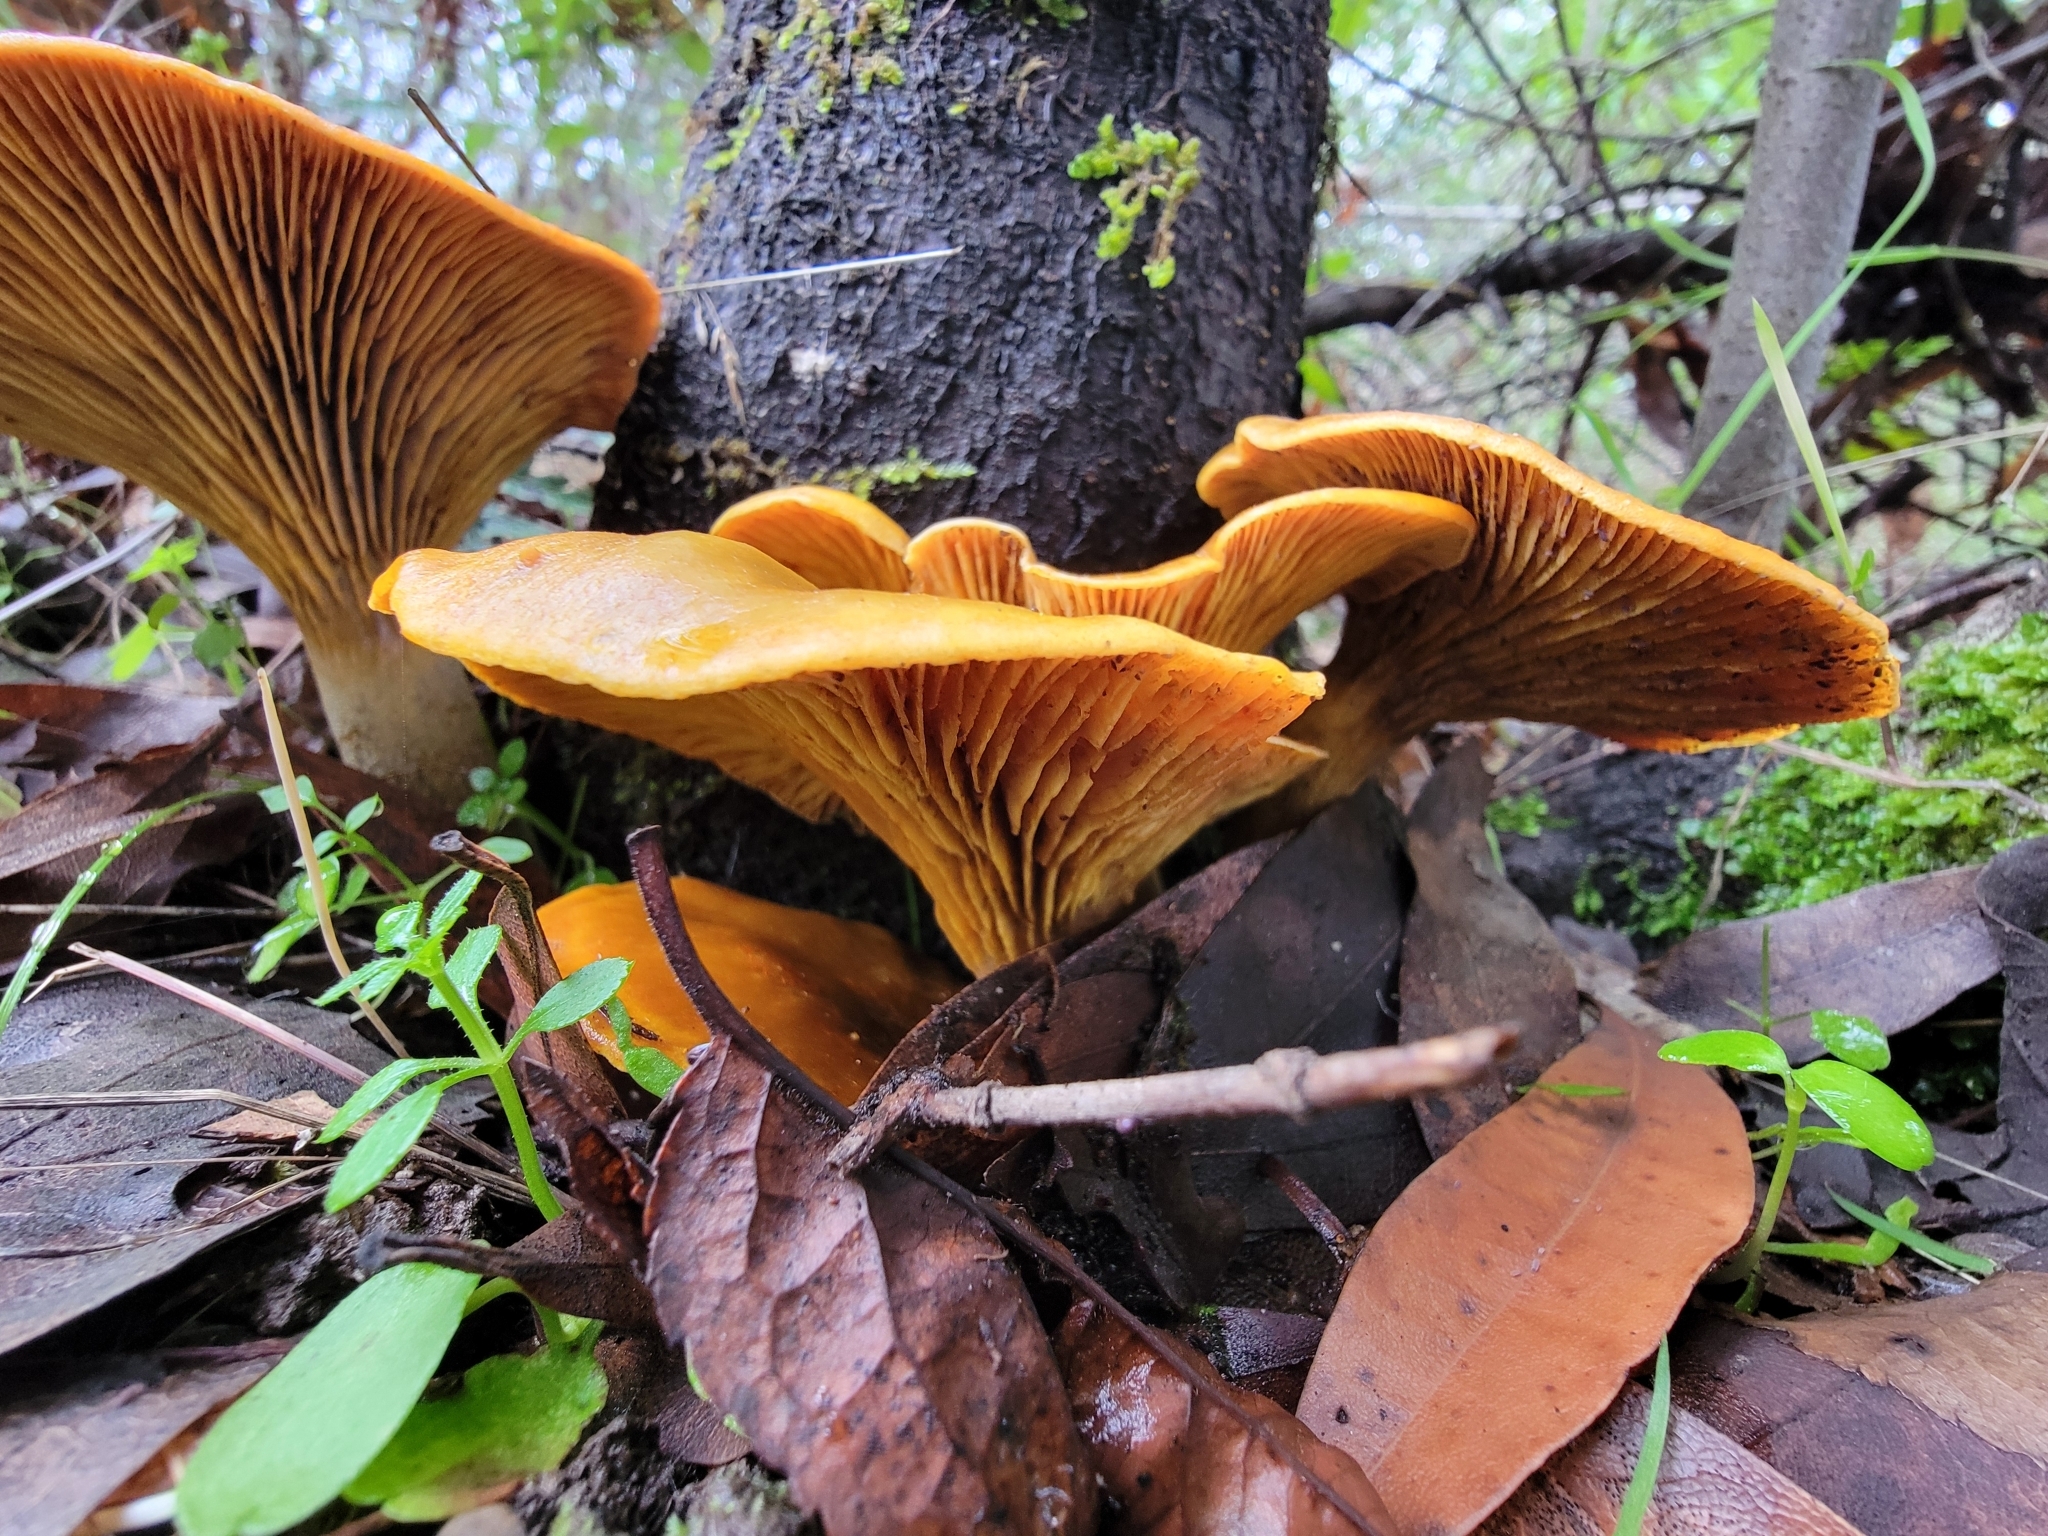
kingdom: Fungi
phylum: Basidiomycota
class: Agaricomycetes
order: Agaricales
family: Omphalotaceae
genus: Omphalotus
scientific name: Omphalotus olivascens
